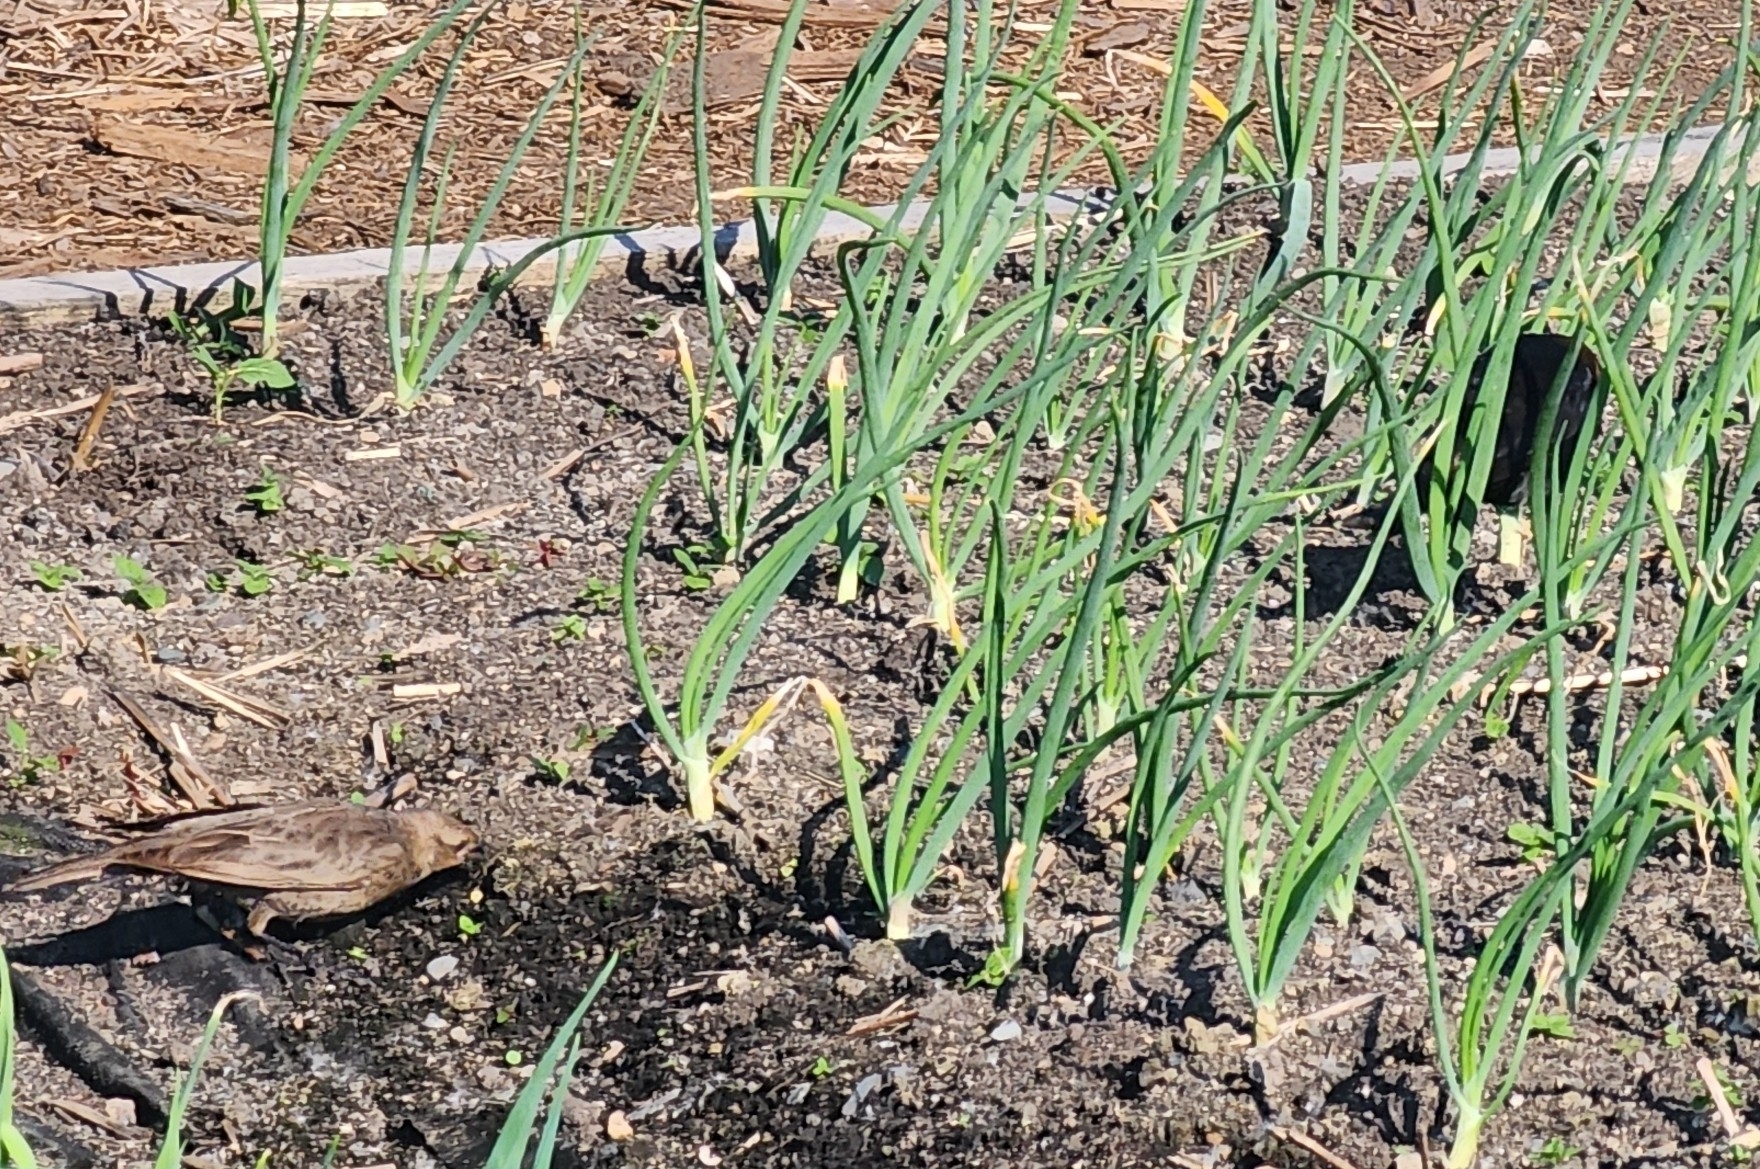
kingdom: Animalia
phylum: Chordata
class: Aves
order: Passeriformes
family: Icteridae
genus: Molothrus
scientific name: Molothrus ater
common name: Brown-headed cowbird
